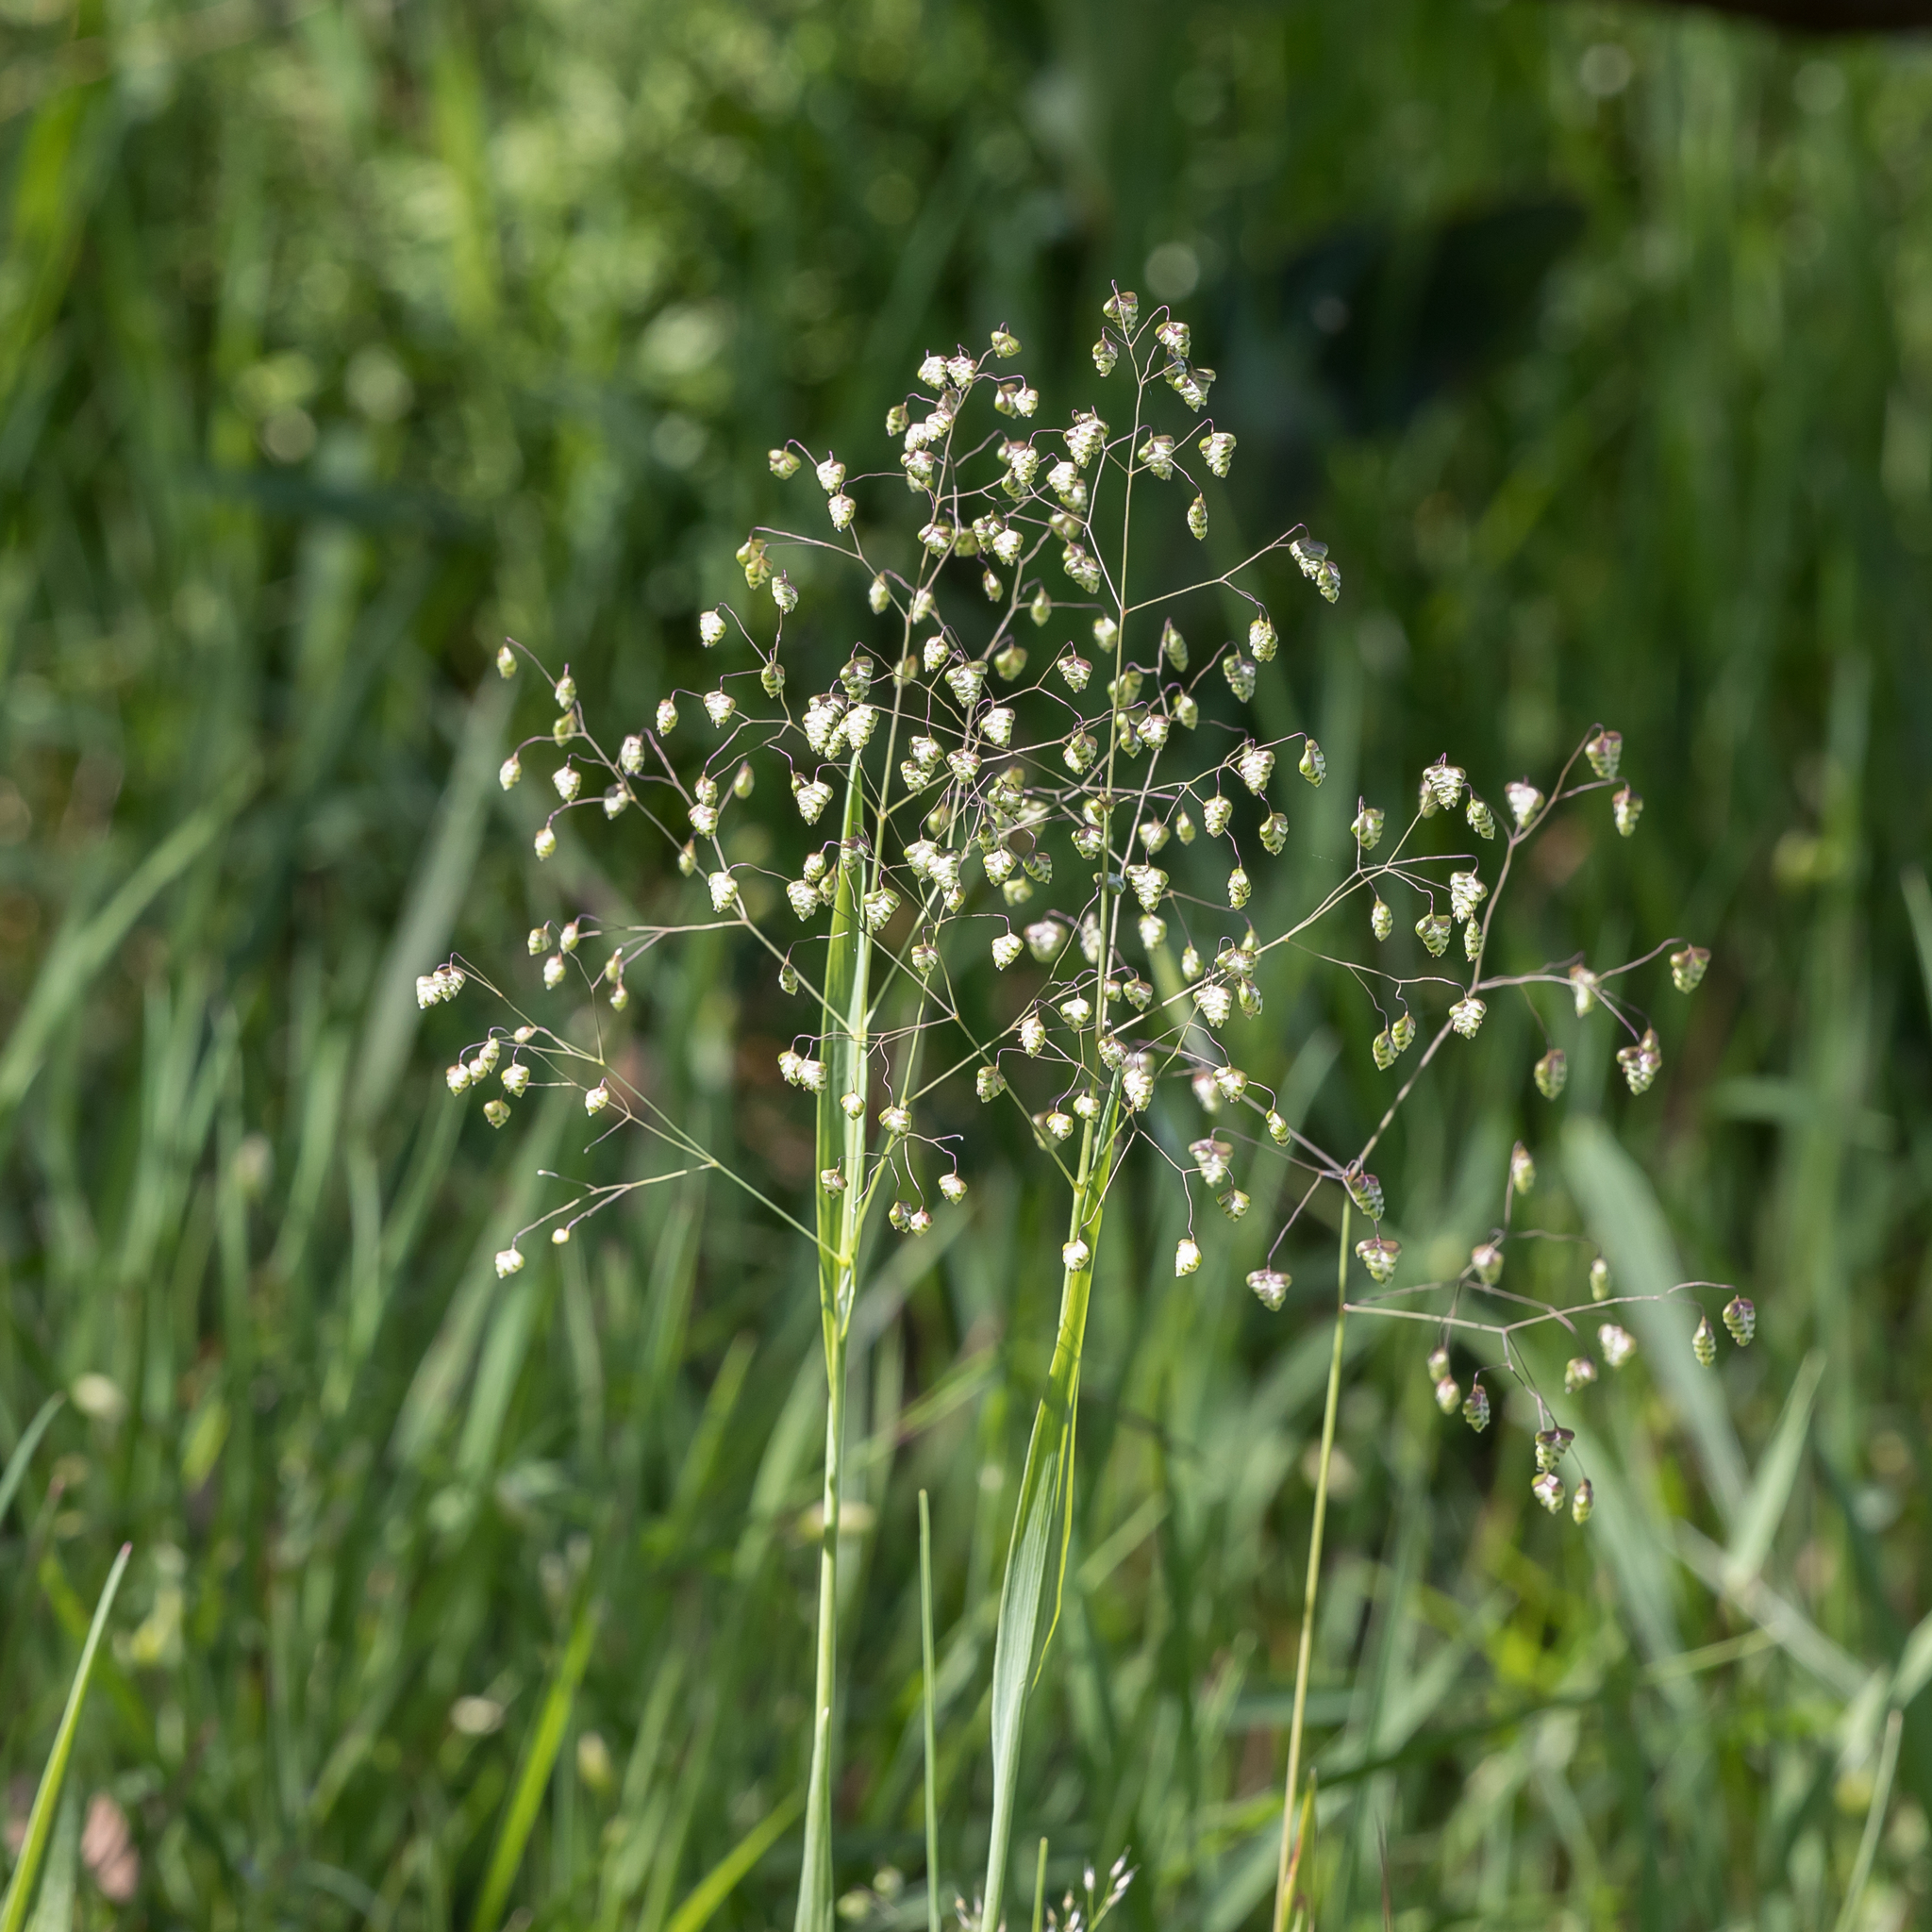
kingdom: Plantae
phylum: Tracheophyta
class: Liliopsida
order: Poales
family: Poaceae
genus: Briza
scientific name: Briza minor
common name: Lesser quaking-grass
